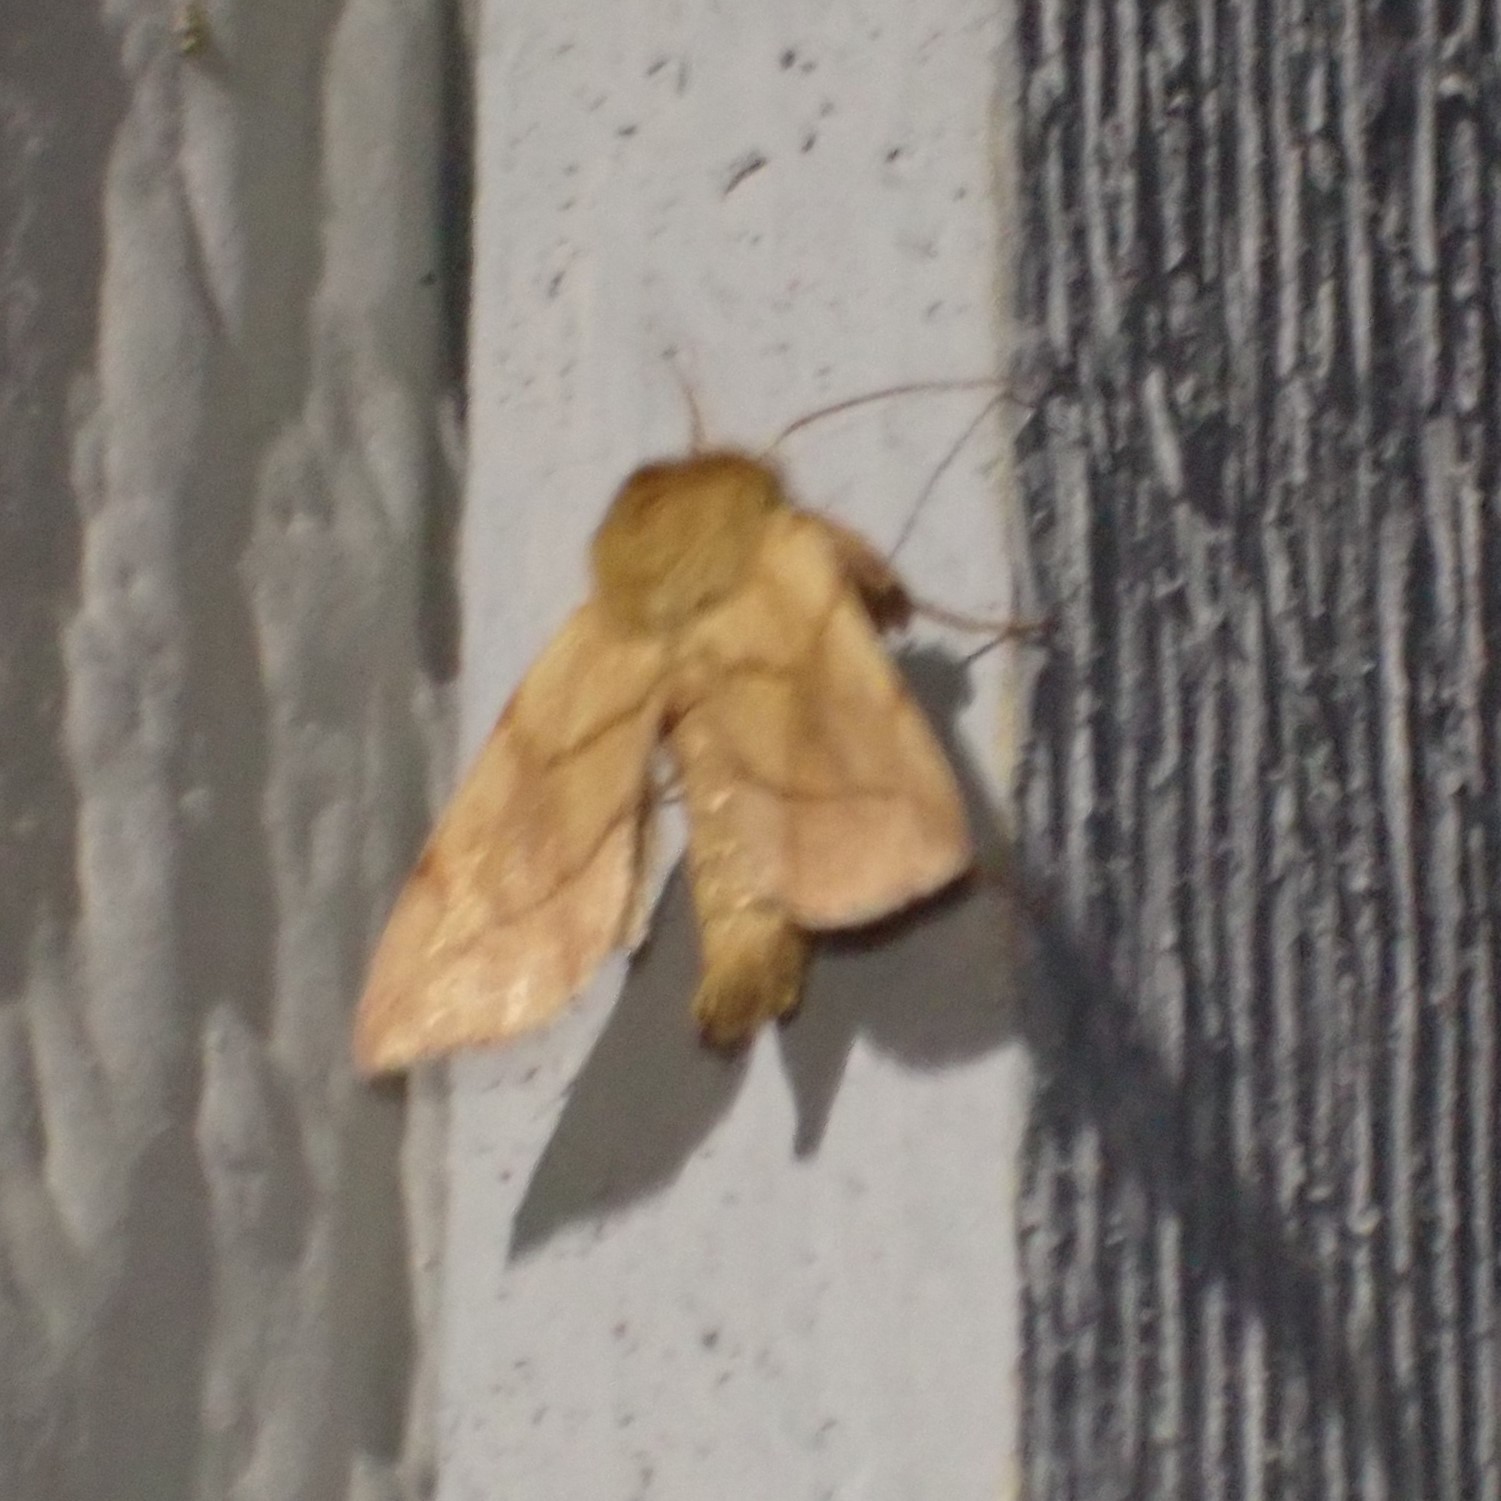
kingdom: Animalia
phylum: Arthropoda
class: Insecta
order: Lepidoptera
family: Lasiocampidae
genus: Malacosoma
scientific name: Malacosoma disstria
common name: Forest tent caterpillar
